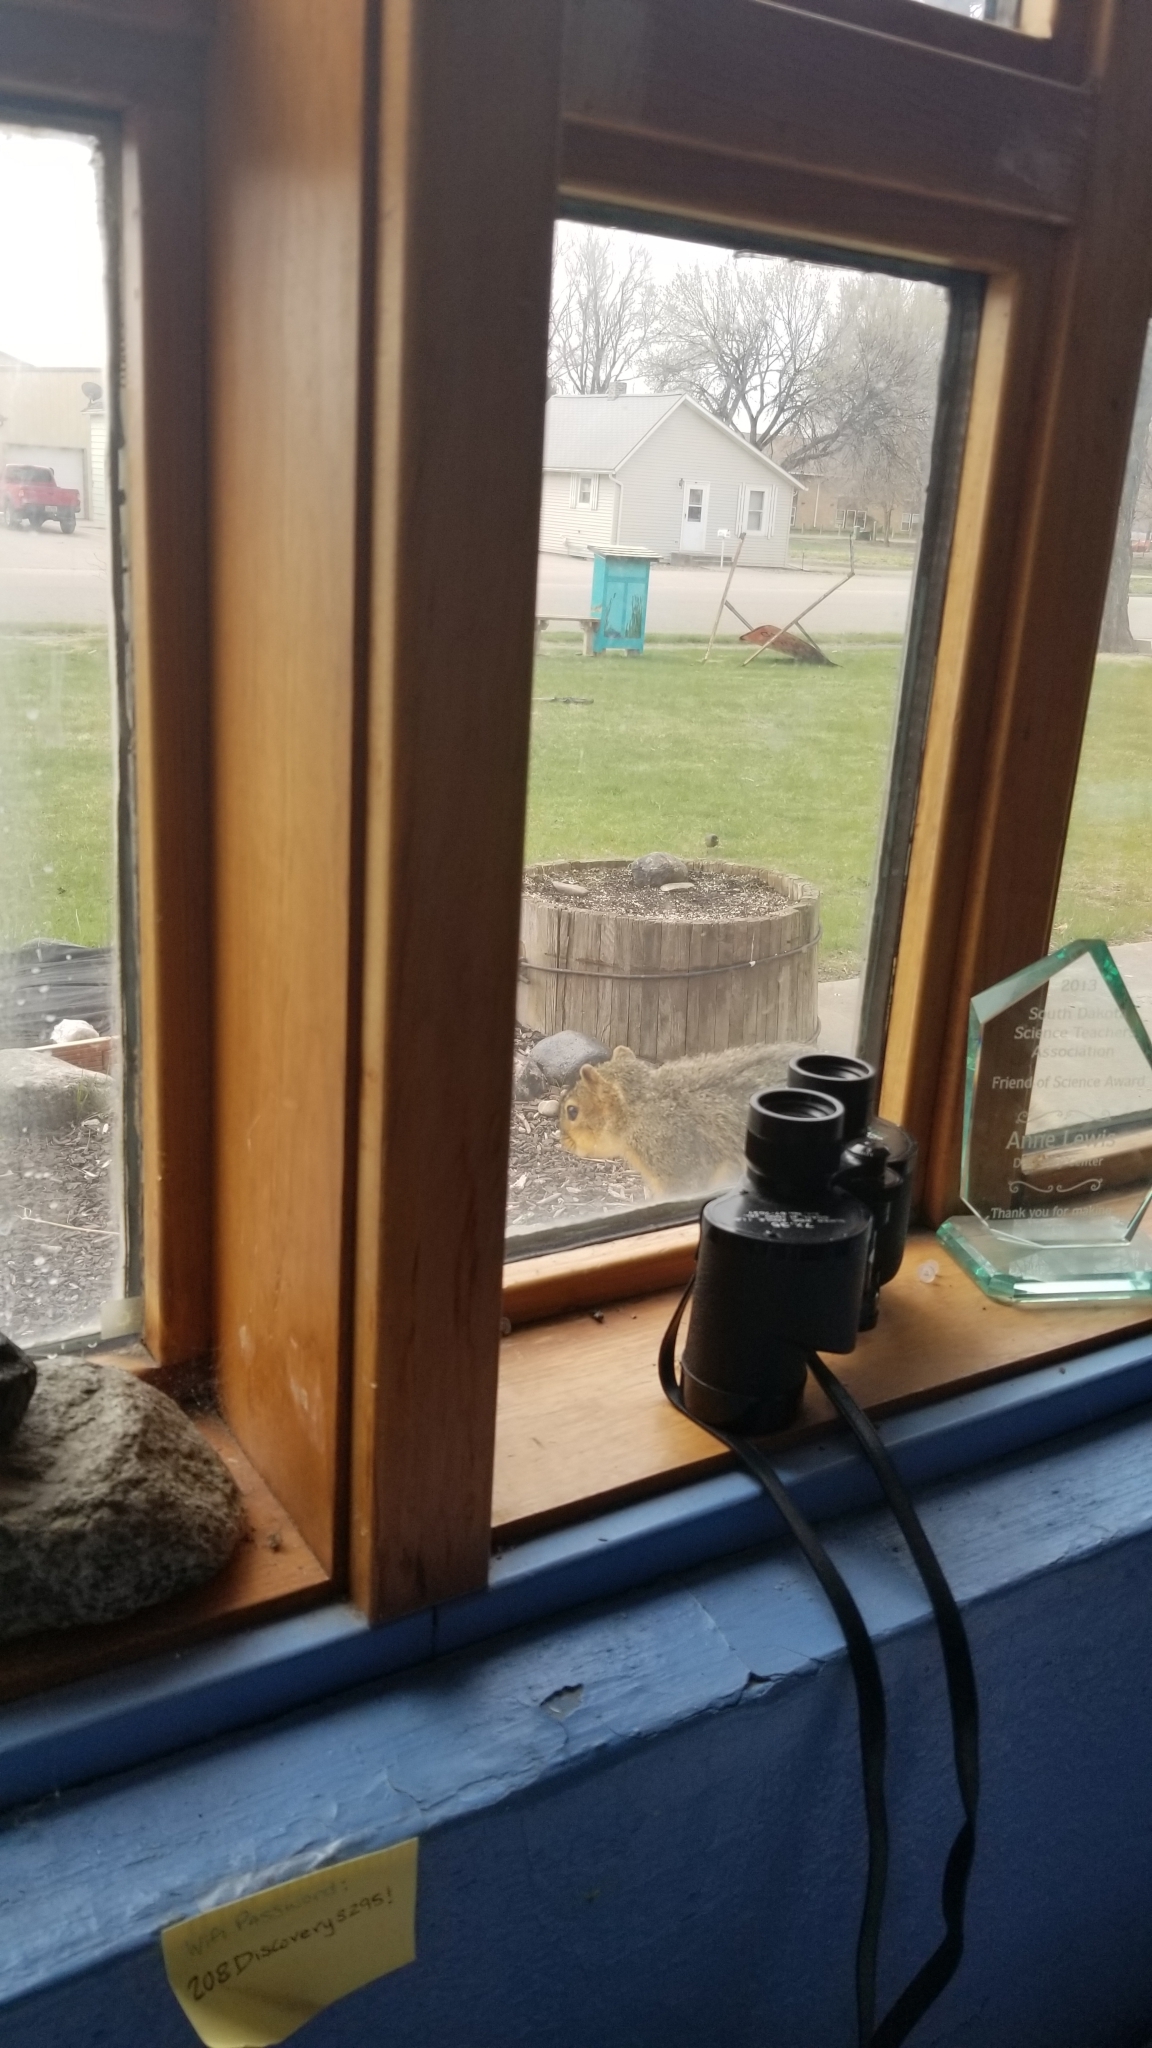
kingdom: Animalia
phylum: Chordata
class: Mammalia
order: Rodentia
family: Sciuridae
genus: Sciurus
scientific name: Sciurus niger
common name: Fox squirrel
